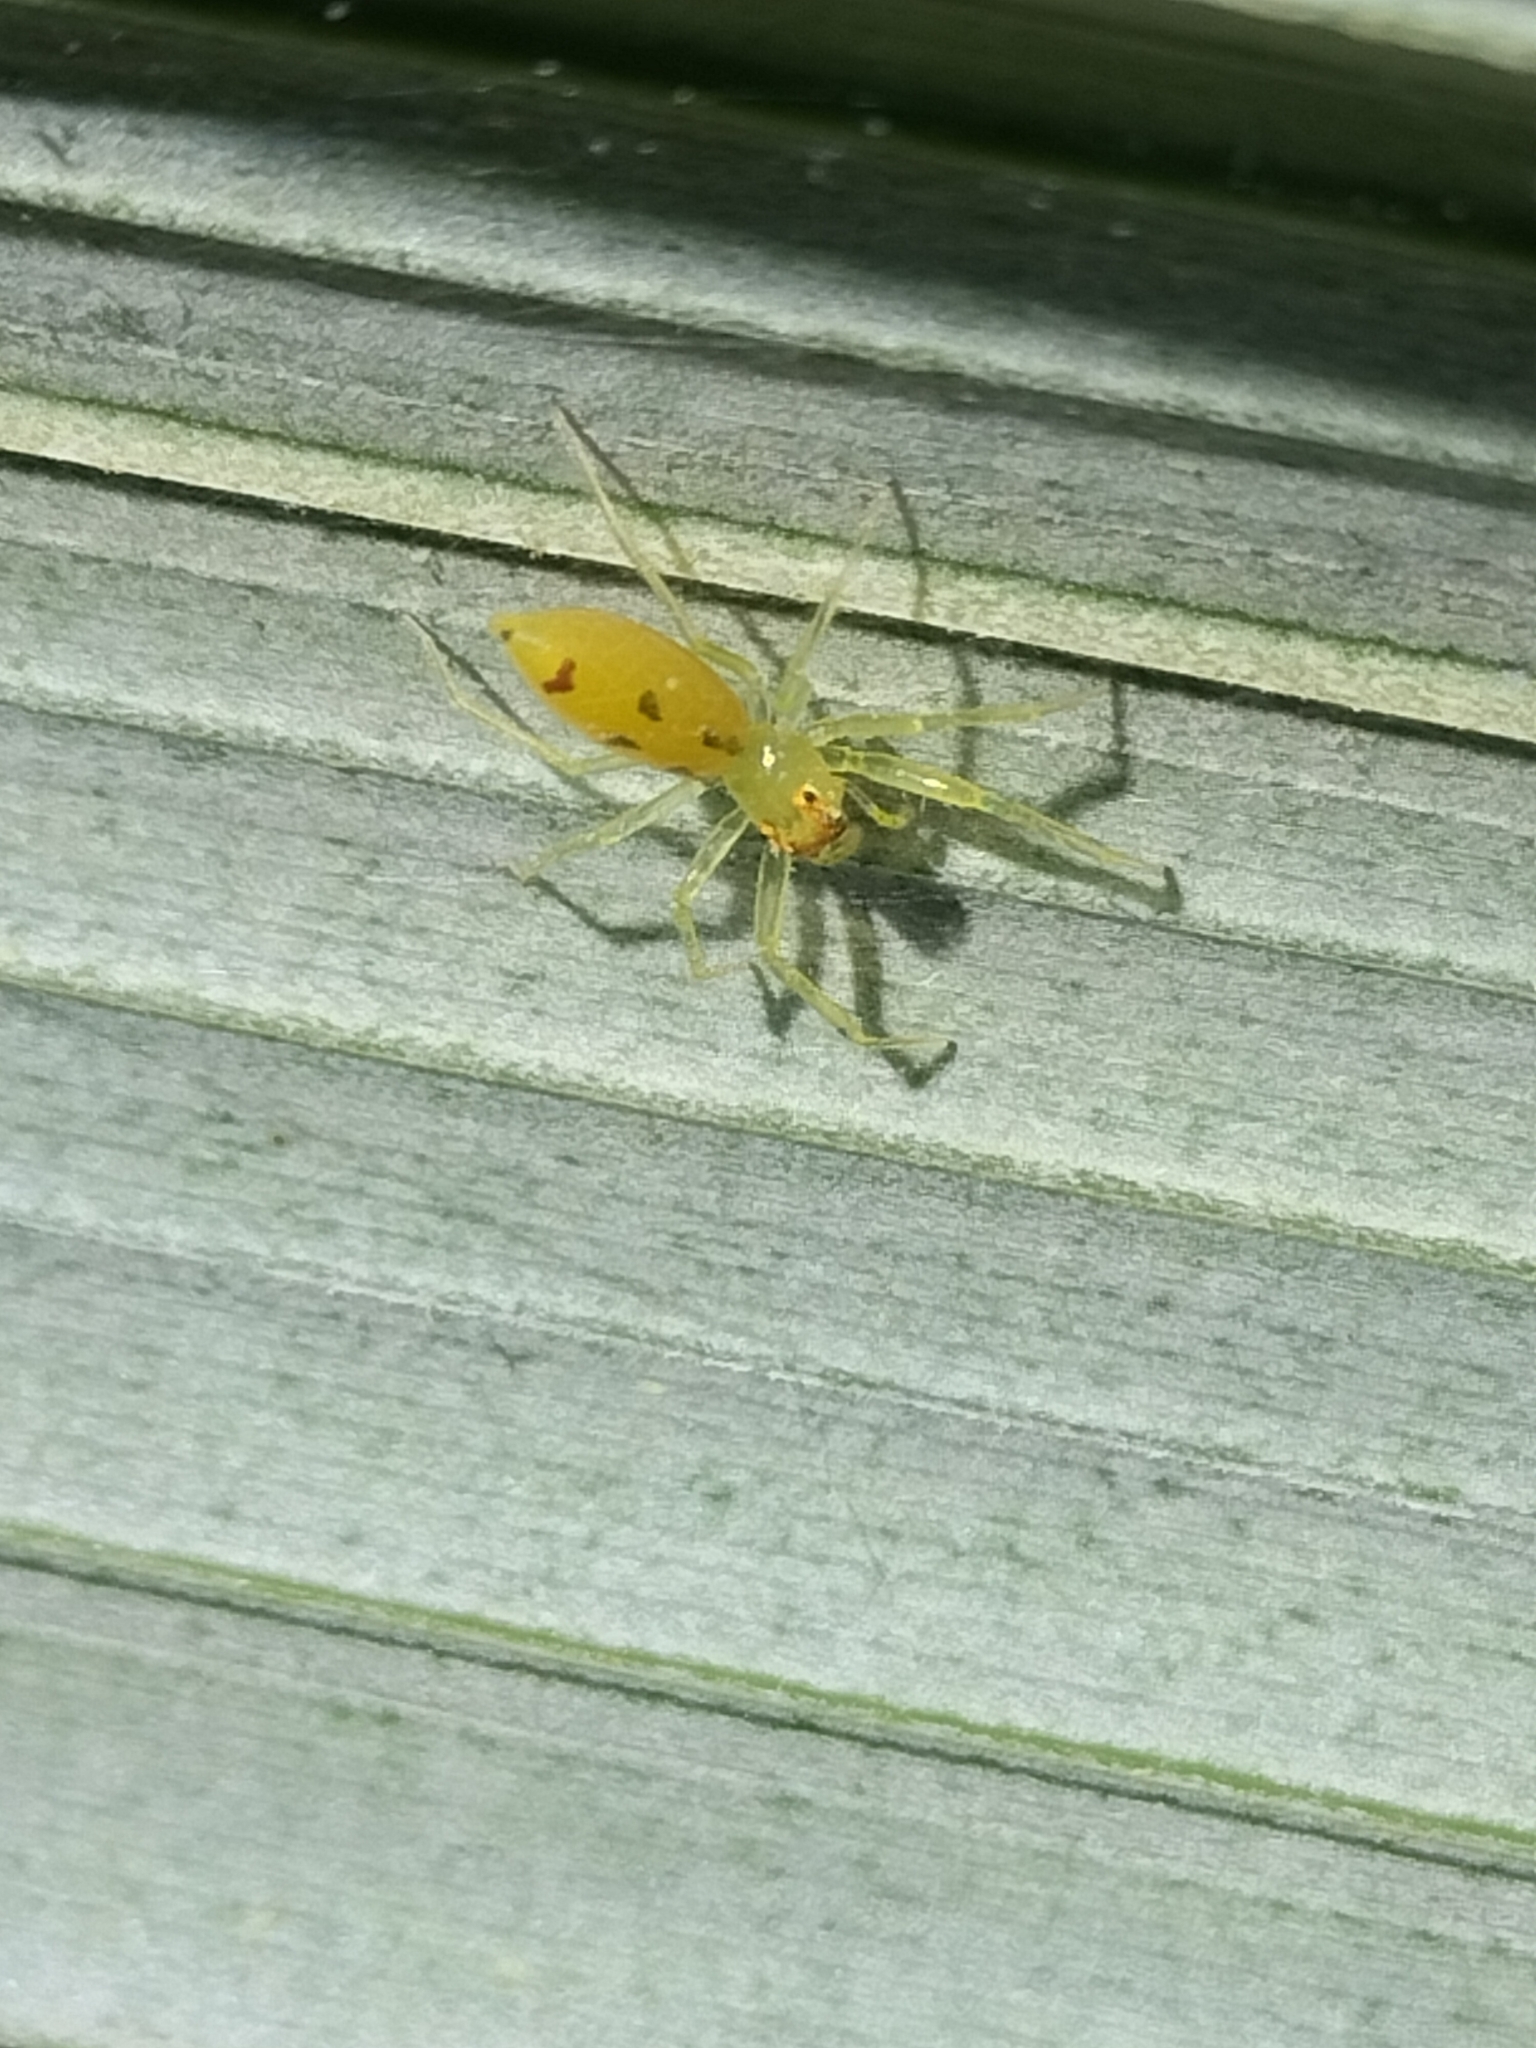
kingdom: Animalia
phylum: Arthropoda
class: Arachnida
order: Araneae
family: Salticidae
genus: Astilodes
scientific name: Astilodes mariae
